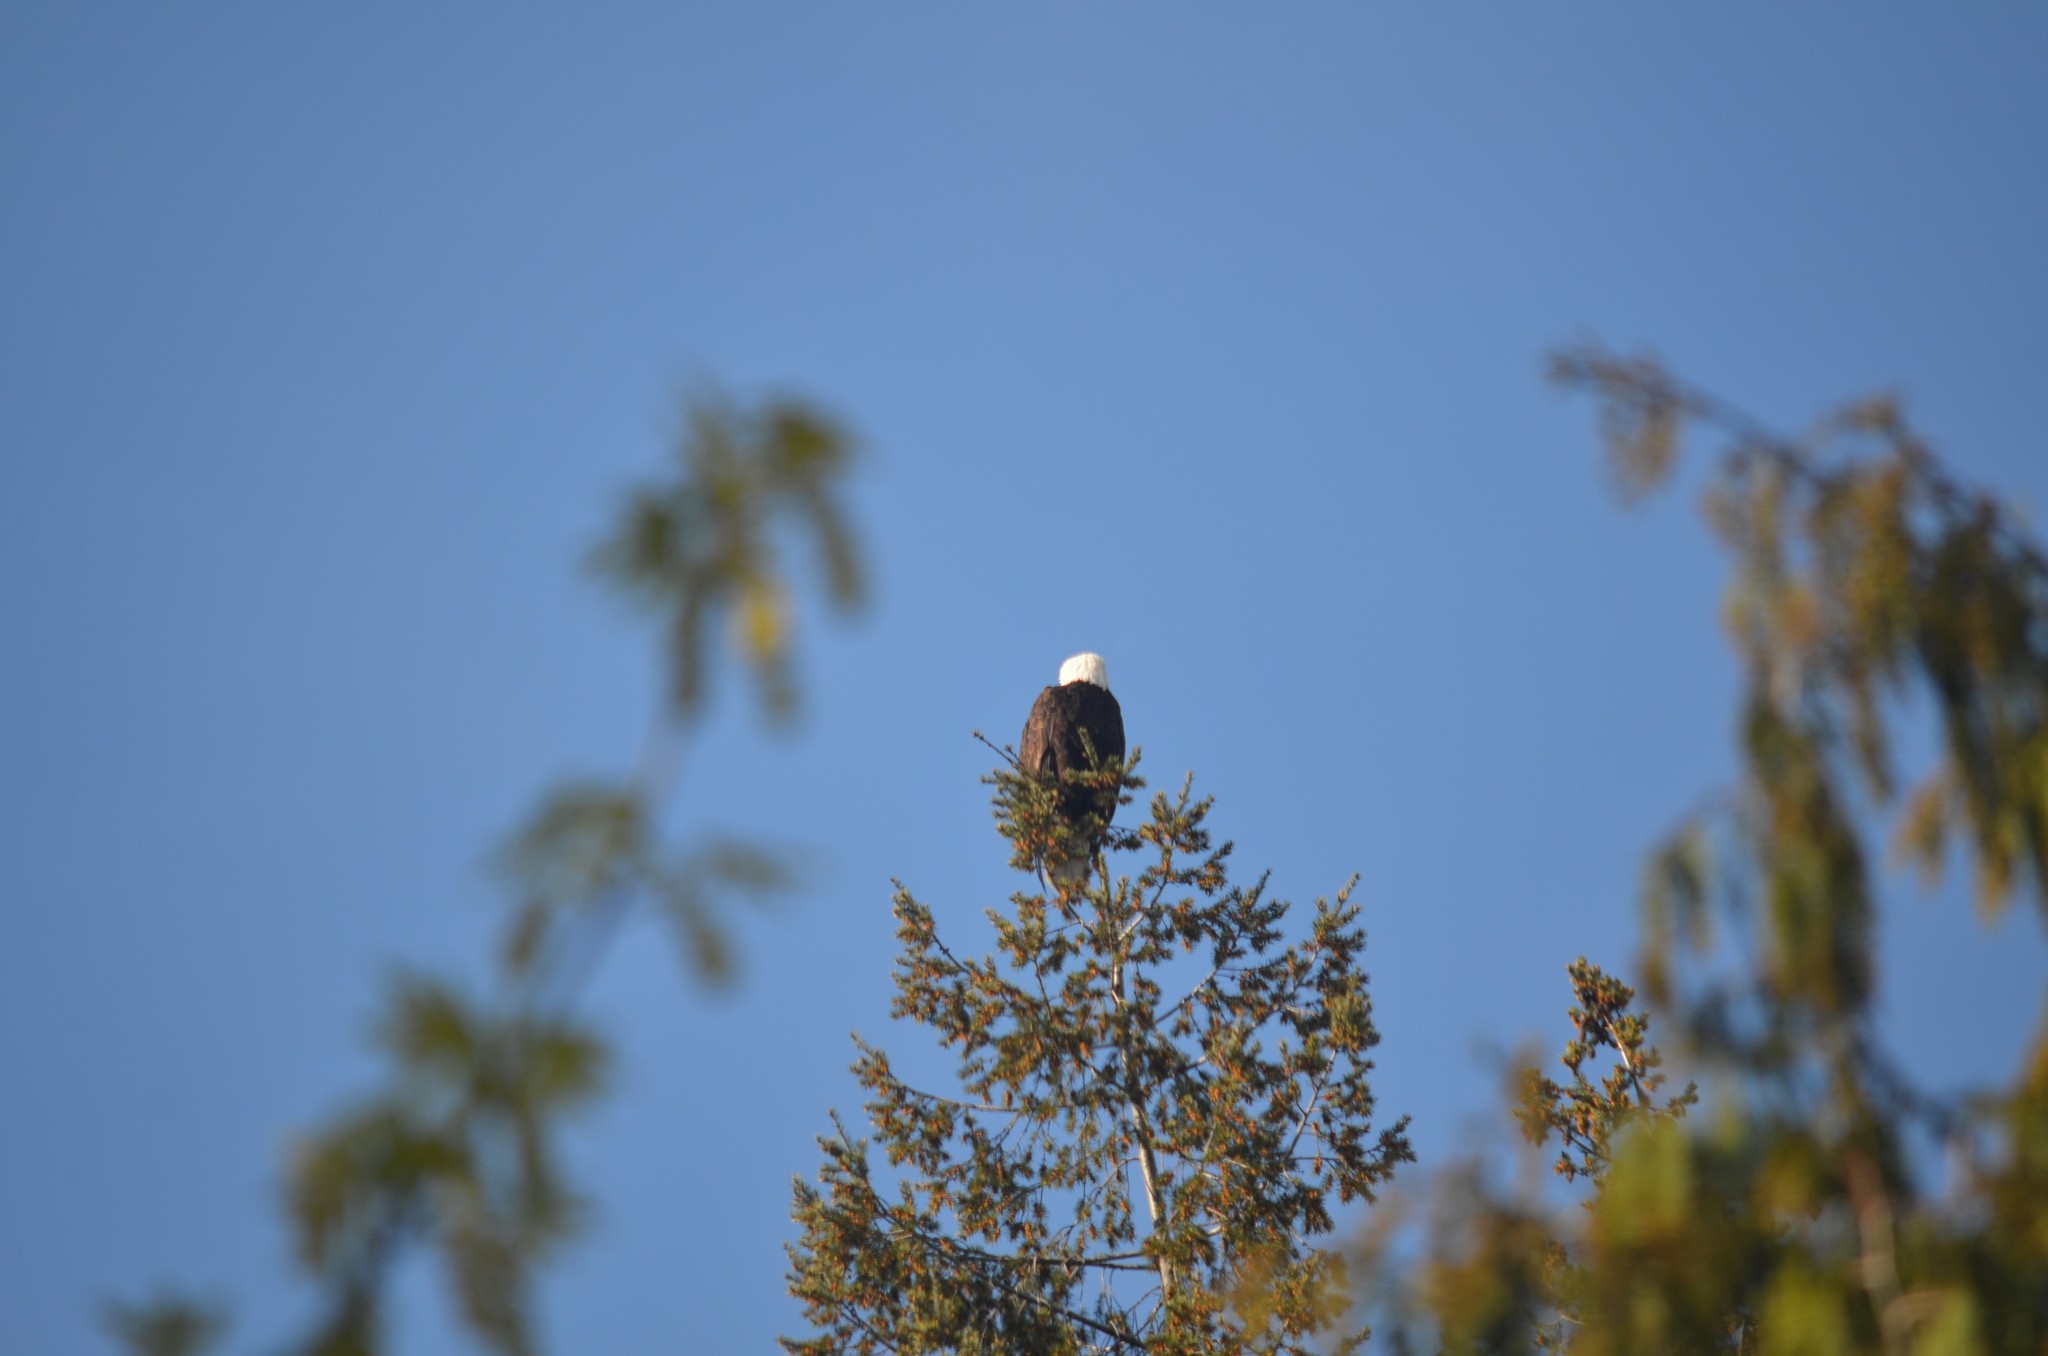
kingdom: Animalia
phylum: Chordata
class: Aves
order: Accipitriformes
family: Accipitridae
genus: Haliaeetus
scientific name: Haliaeetus leucocephalus
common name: Bald eagle
